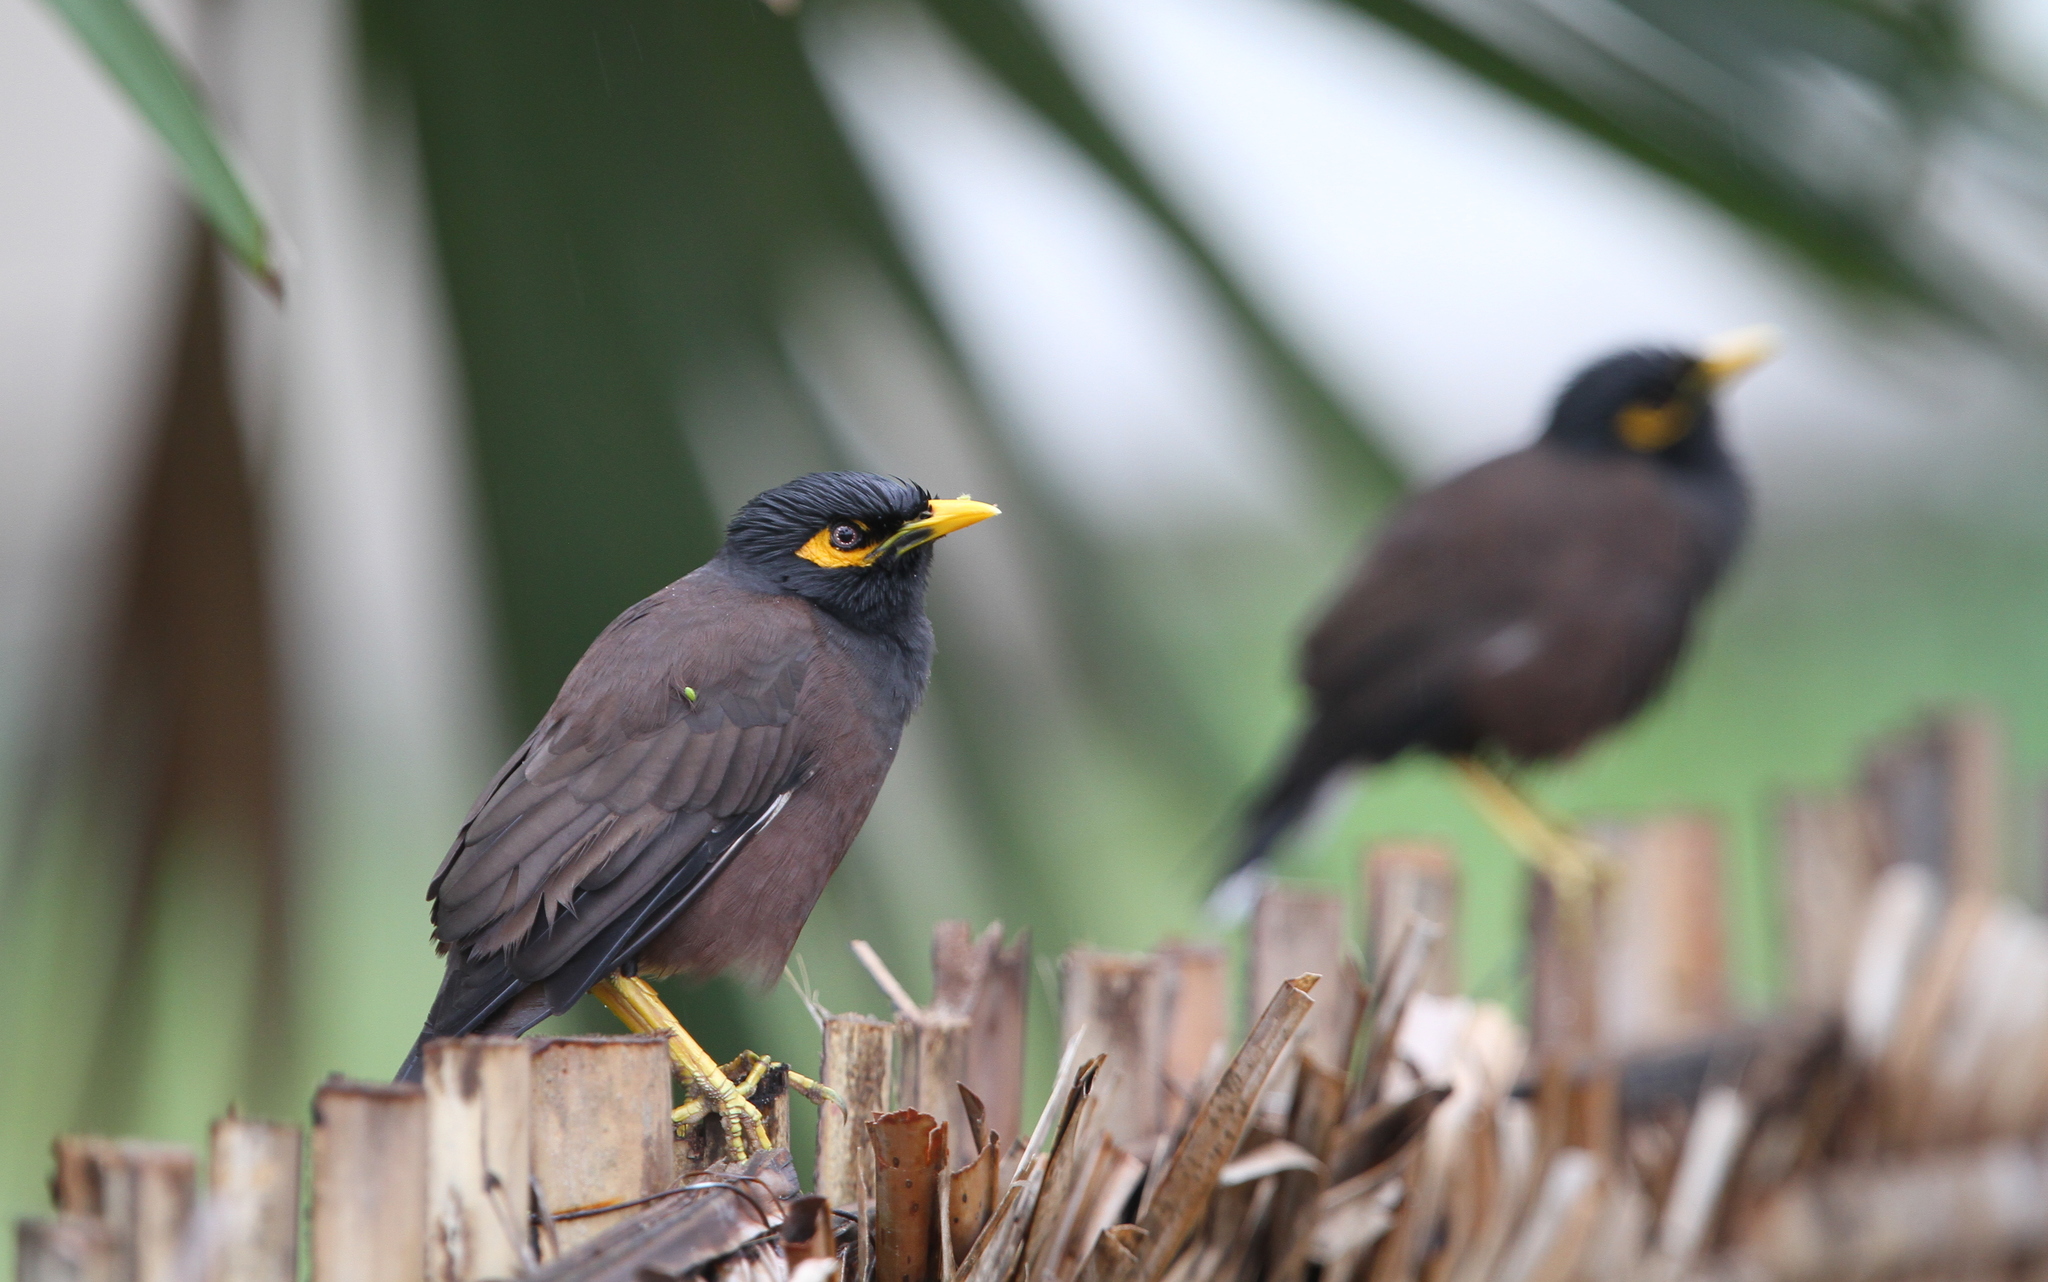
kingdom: Animalia
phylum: Chordata
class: Aves
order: Passeriformes
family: Sturnidae
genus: Acridotheres
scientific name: Acridotheres tristis
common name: Common myna
